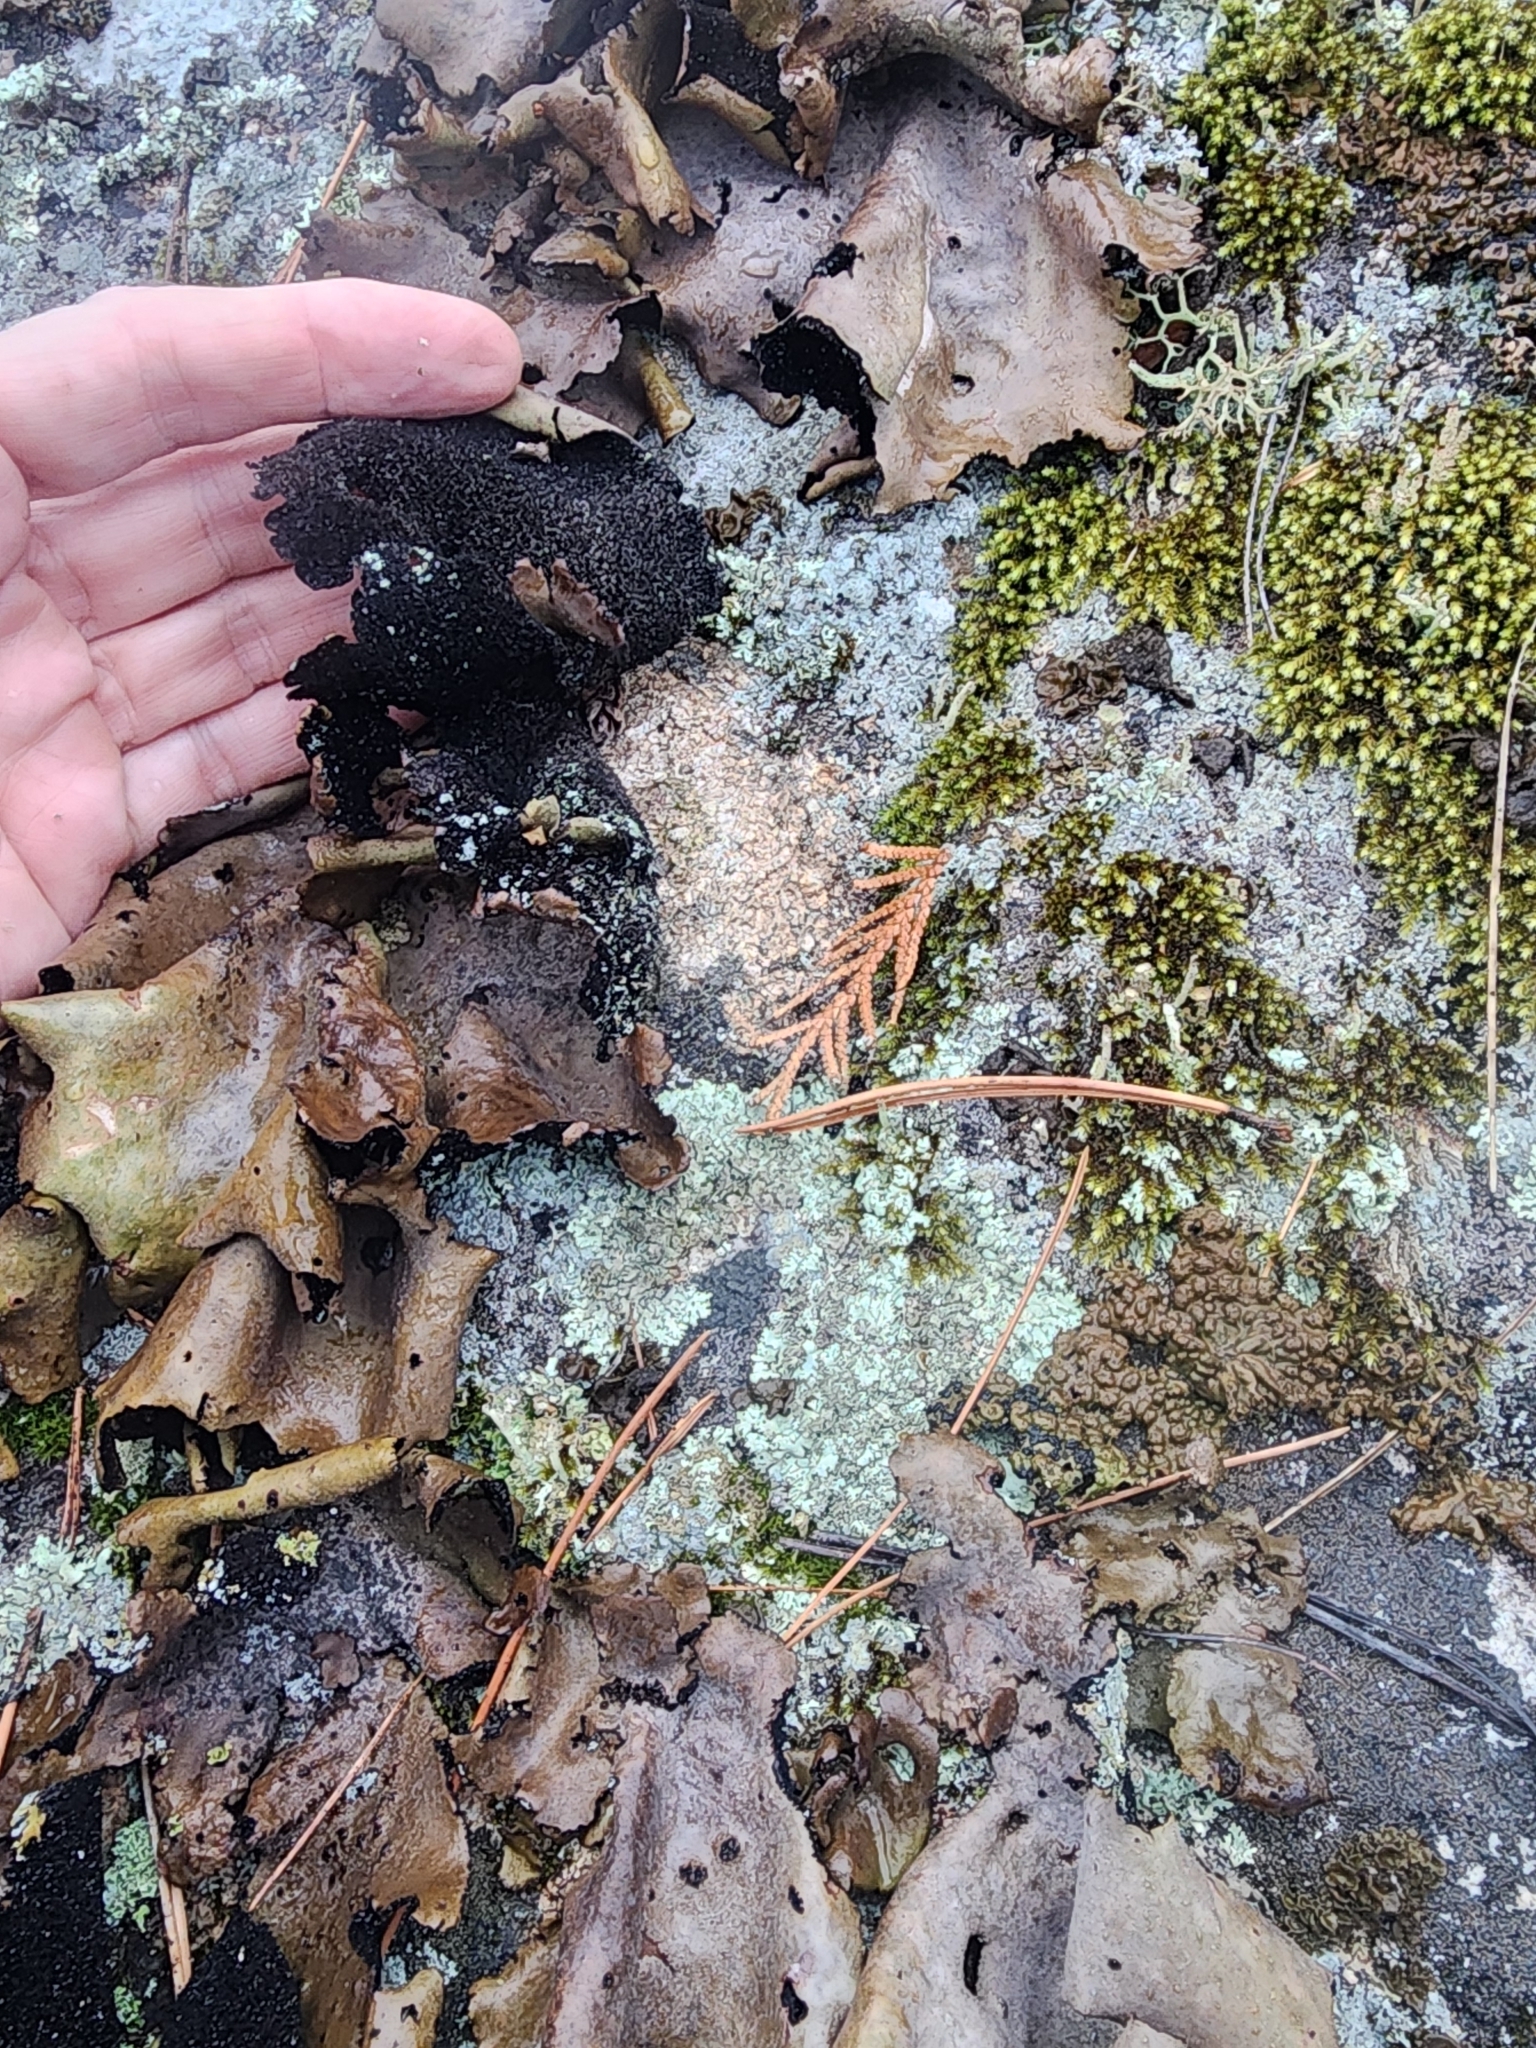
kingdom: Fungi
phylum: Ascomycota
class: Lecanoromycetes
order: Umbilicariales
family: Umbilicariaceae
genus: Umbilicaria
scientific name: Umbilicaria mammulata
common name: Smooth rock tripe
